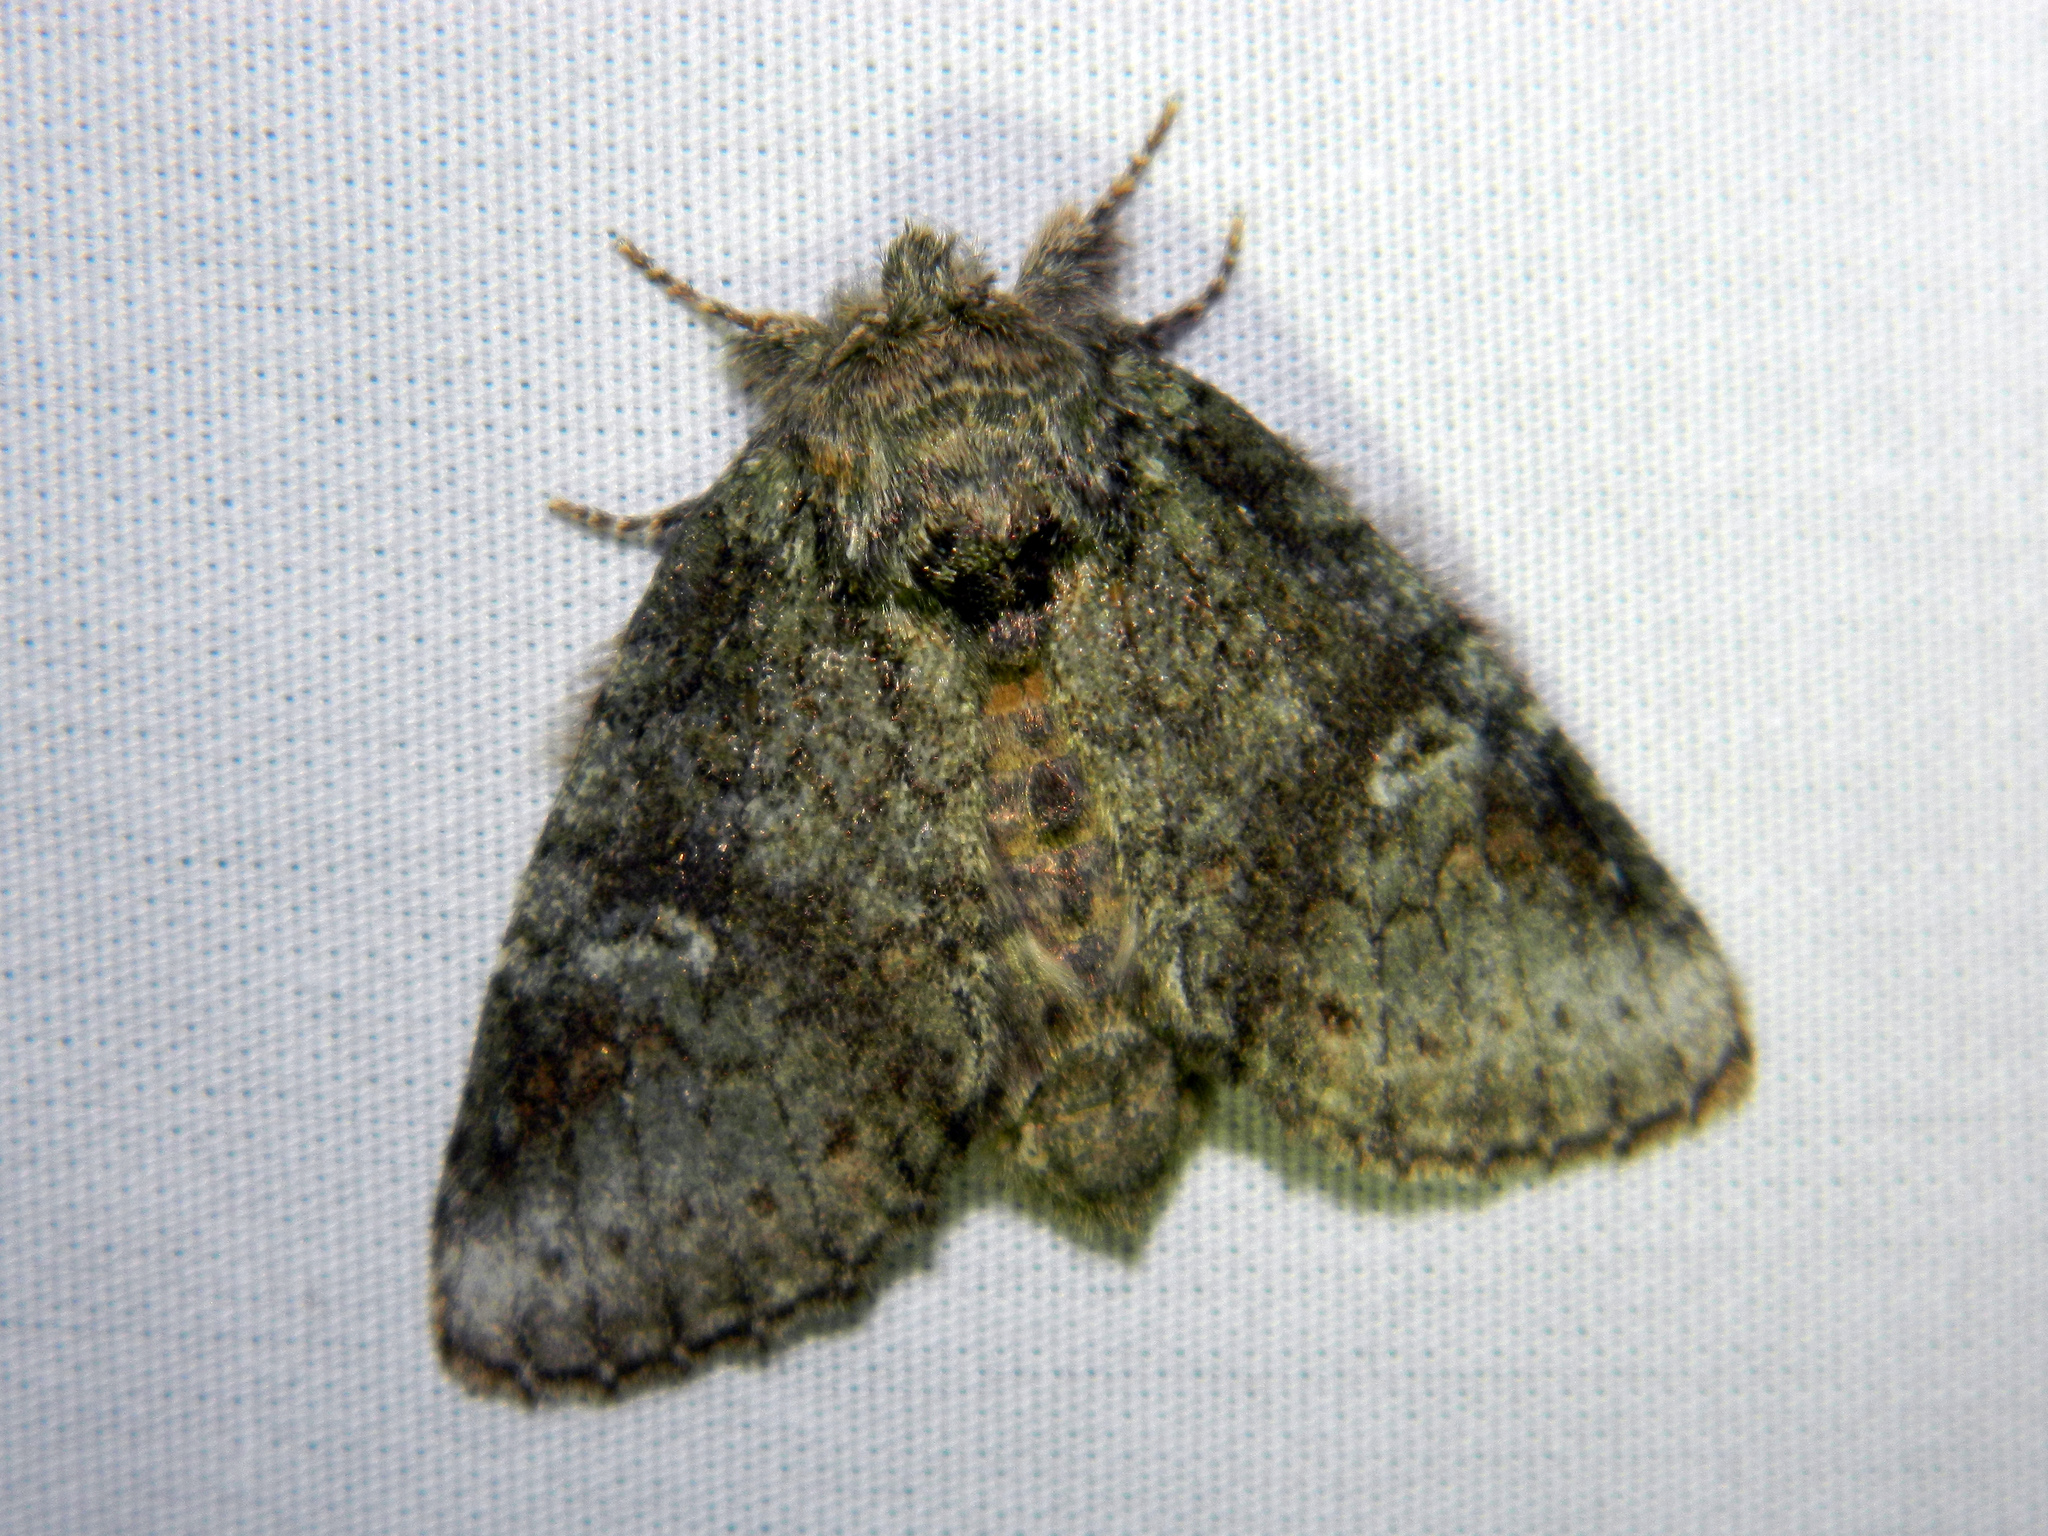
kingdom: Animalia
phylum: Arthropoda
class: Insecta
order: Lepidoptera
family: Notodontidae
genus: Disphragis
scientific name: Disphragis Cecrita guttivitta
